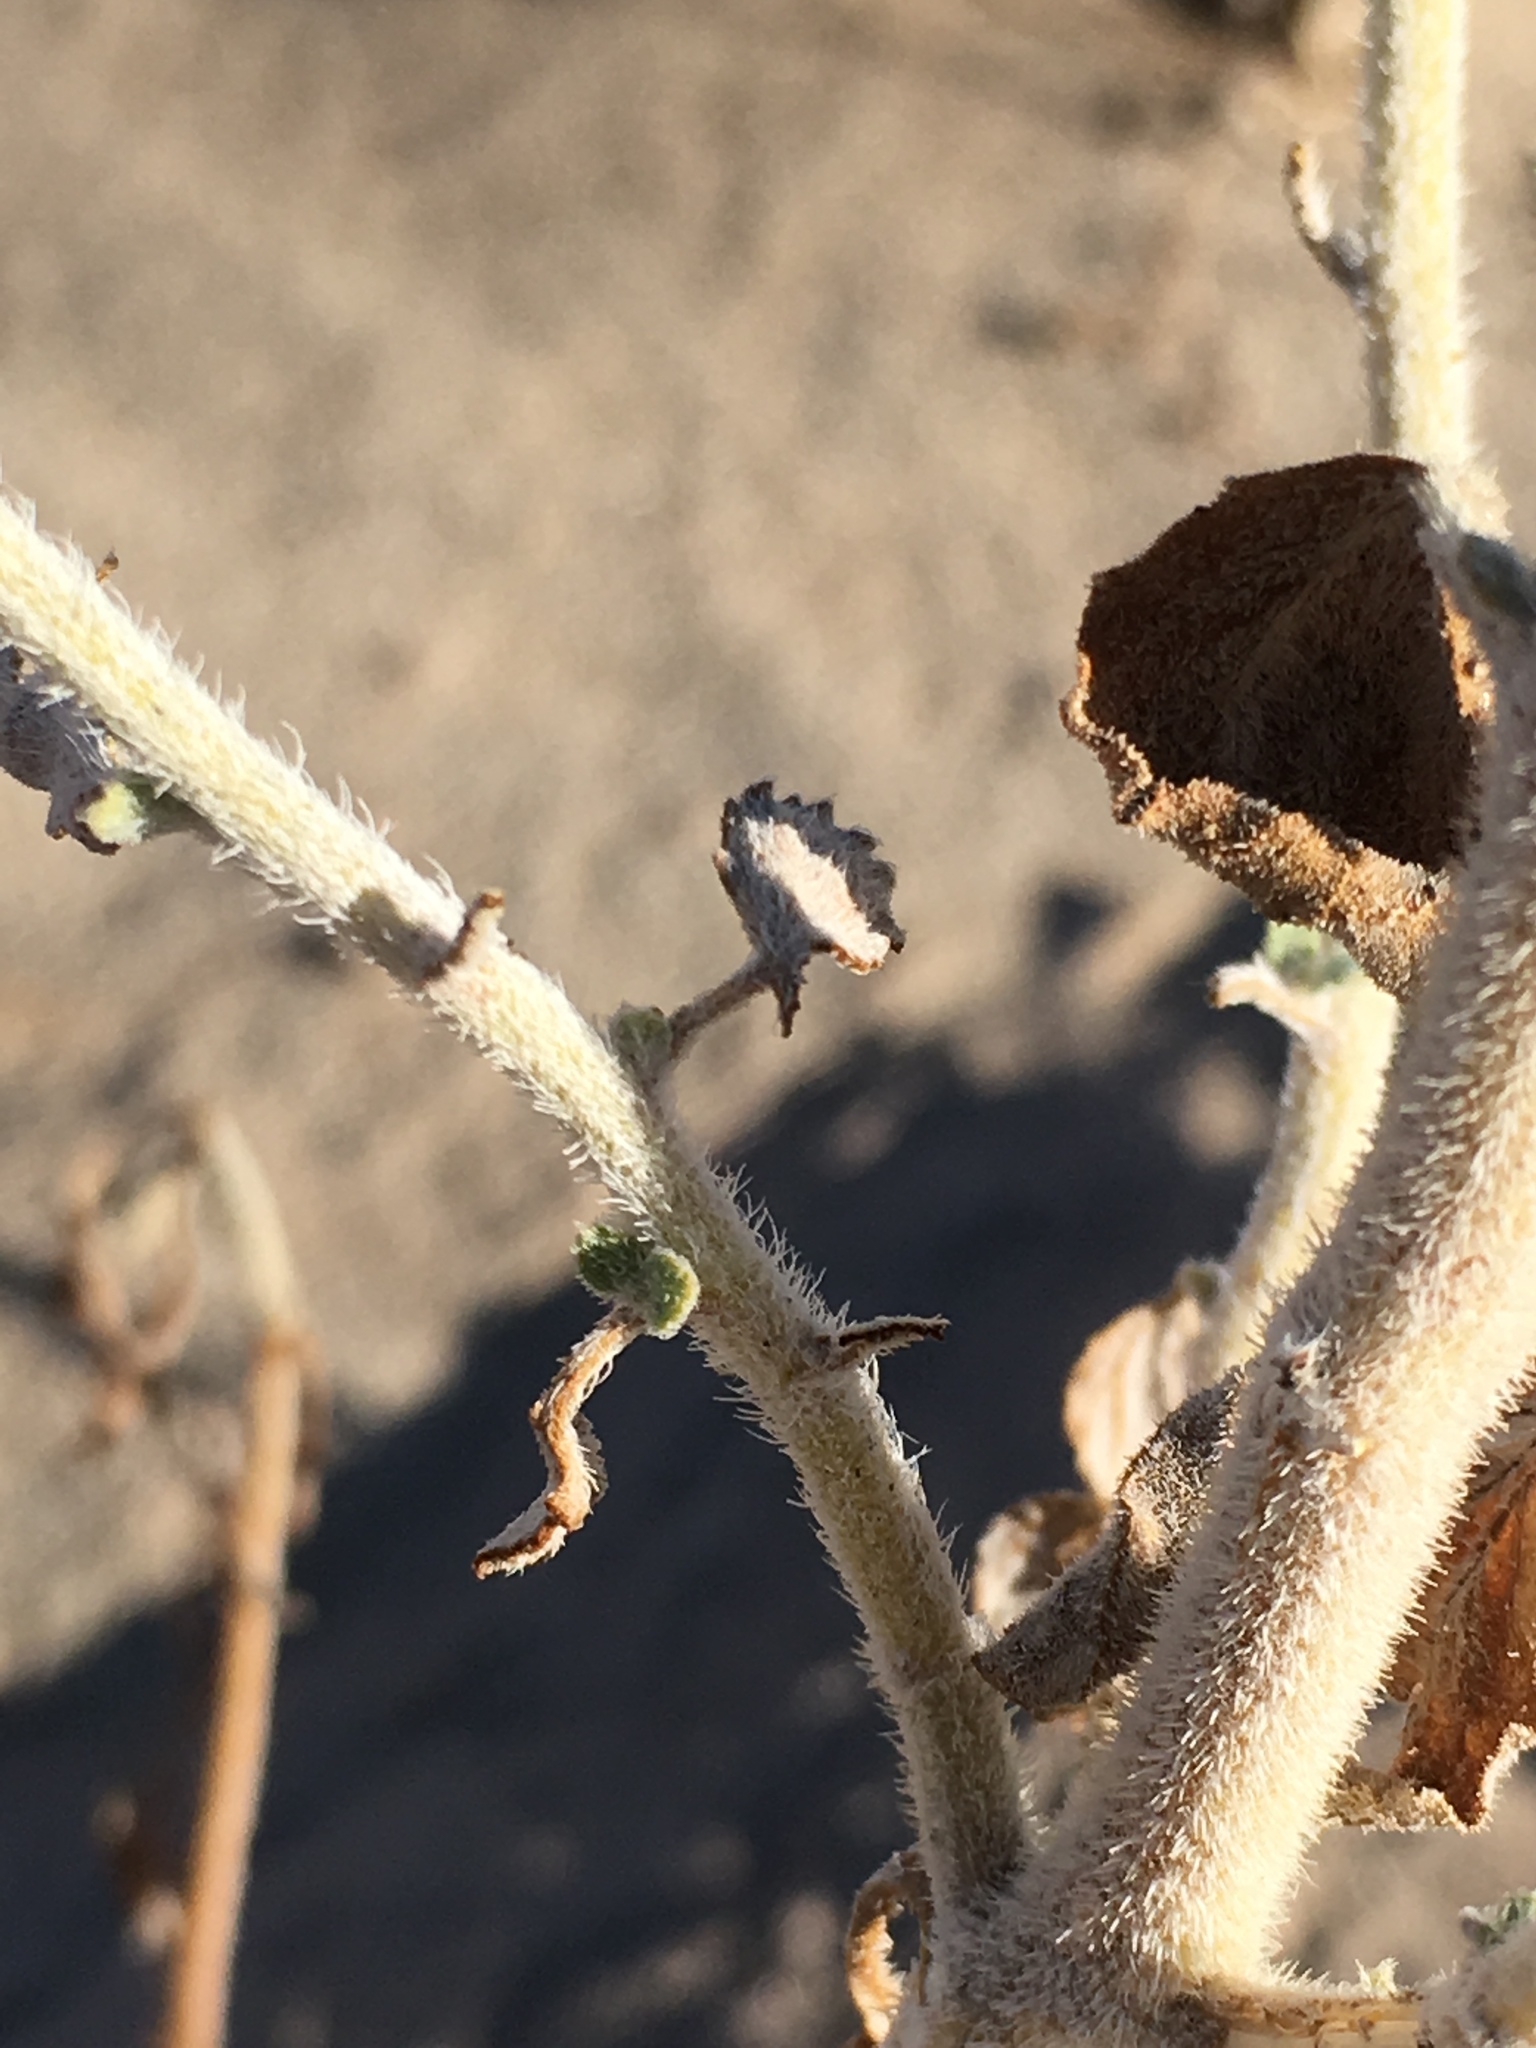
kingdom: Plantae
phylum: Tracheophyta
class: Magnoliopsida
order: Asterales
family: Asteraceae
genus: Dicoria
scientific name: Dicoria canescens
